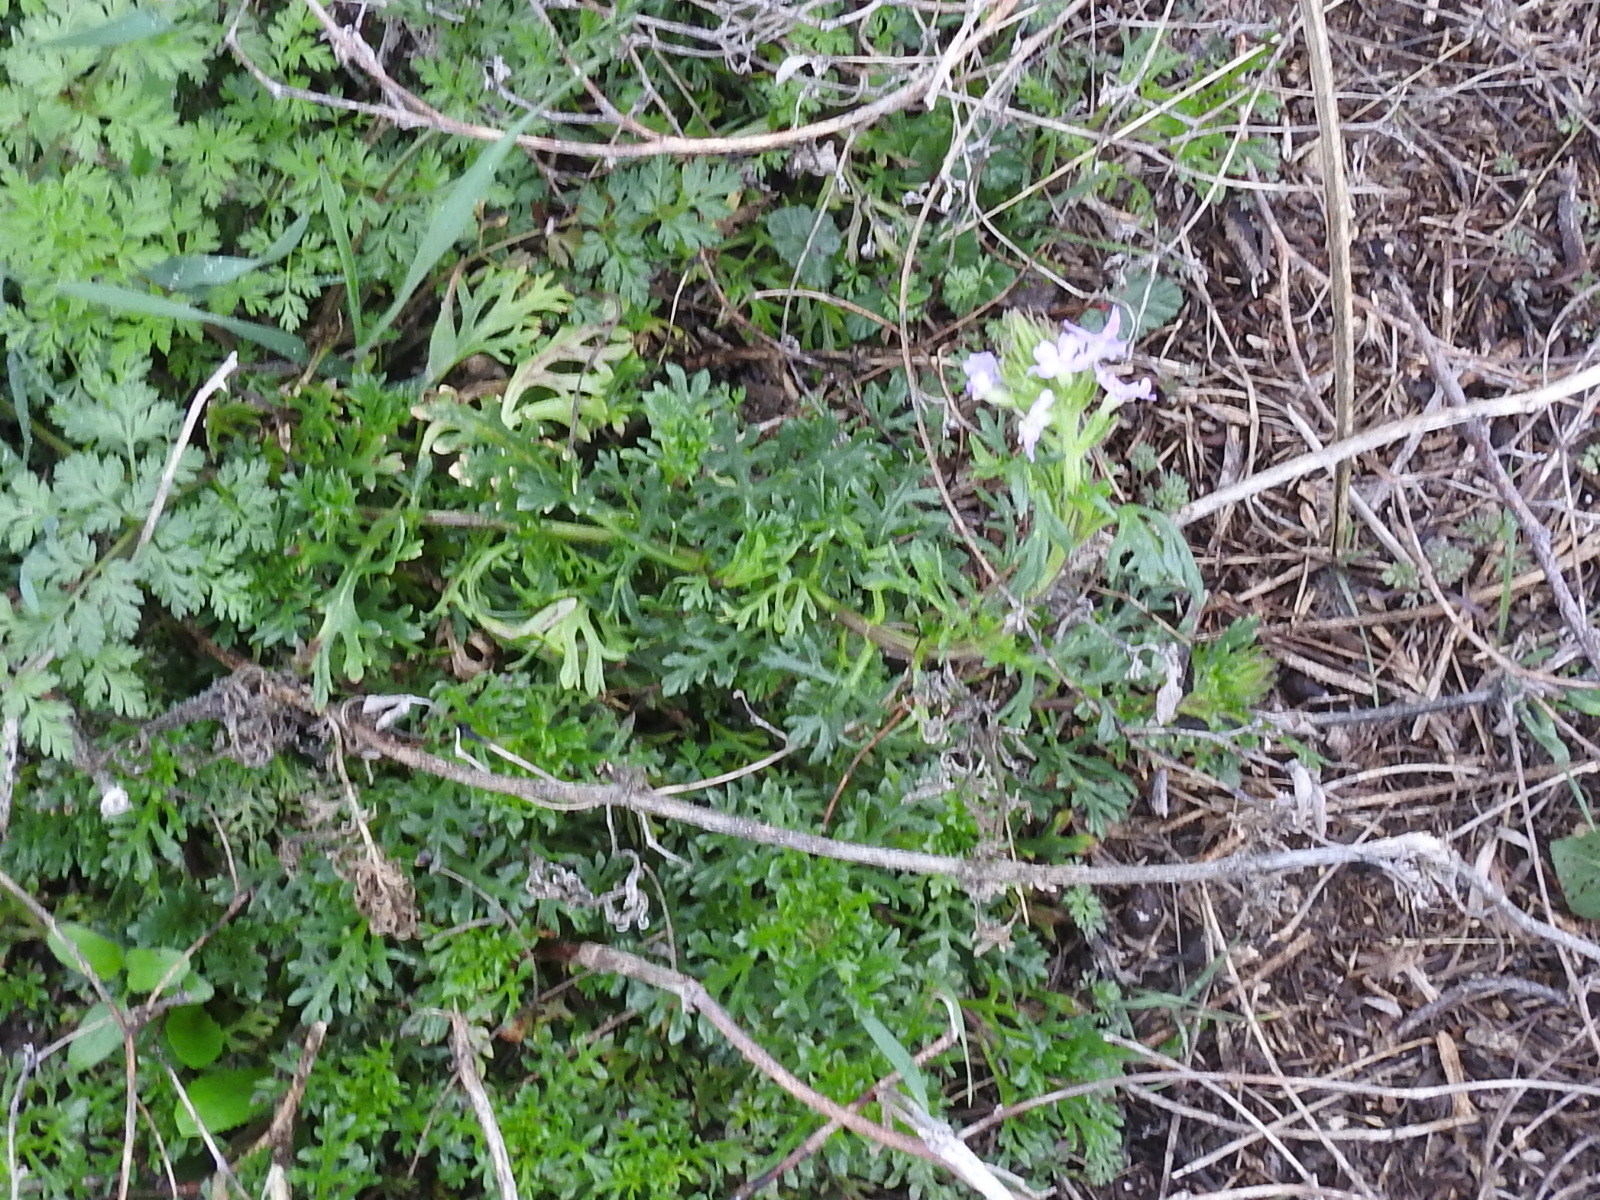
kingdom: Plantae
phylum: Tracheophyta
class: Magnoliopsida
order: Lamiales
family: Verbenaceae
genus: Verbena
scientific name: Verbena bipinnatifida
